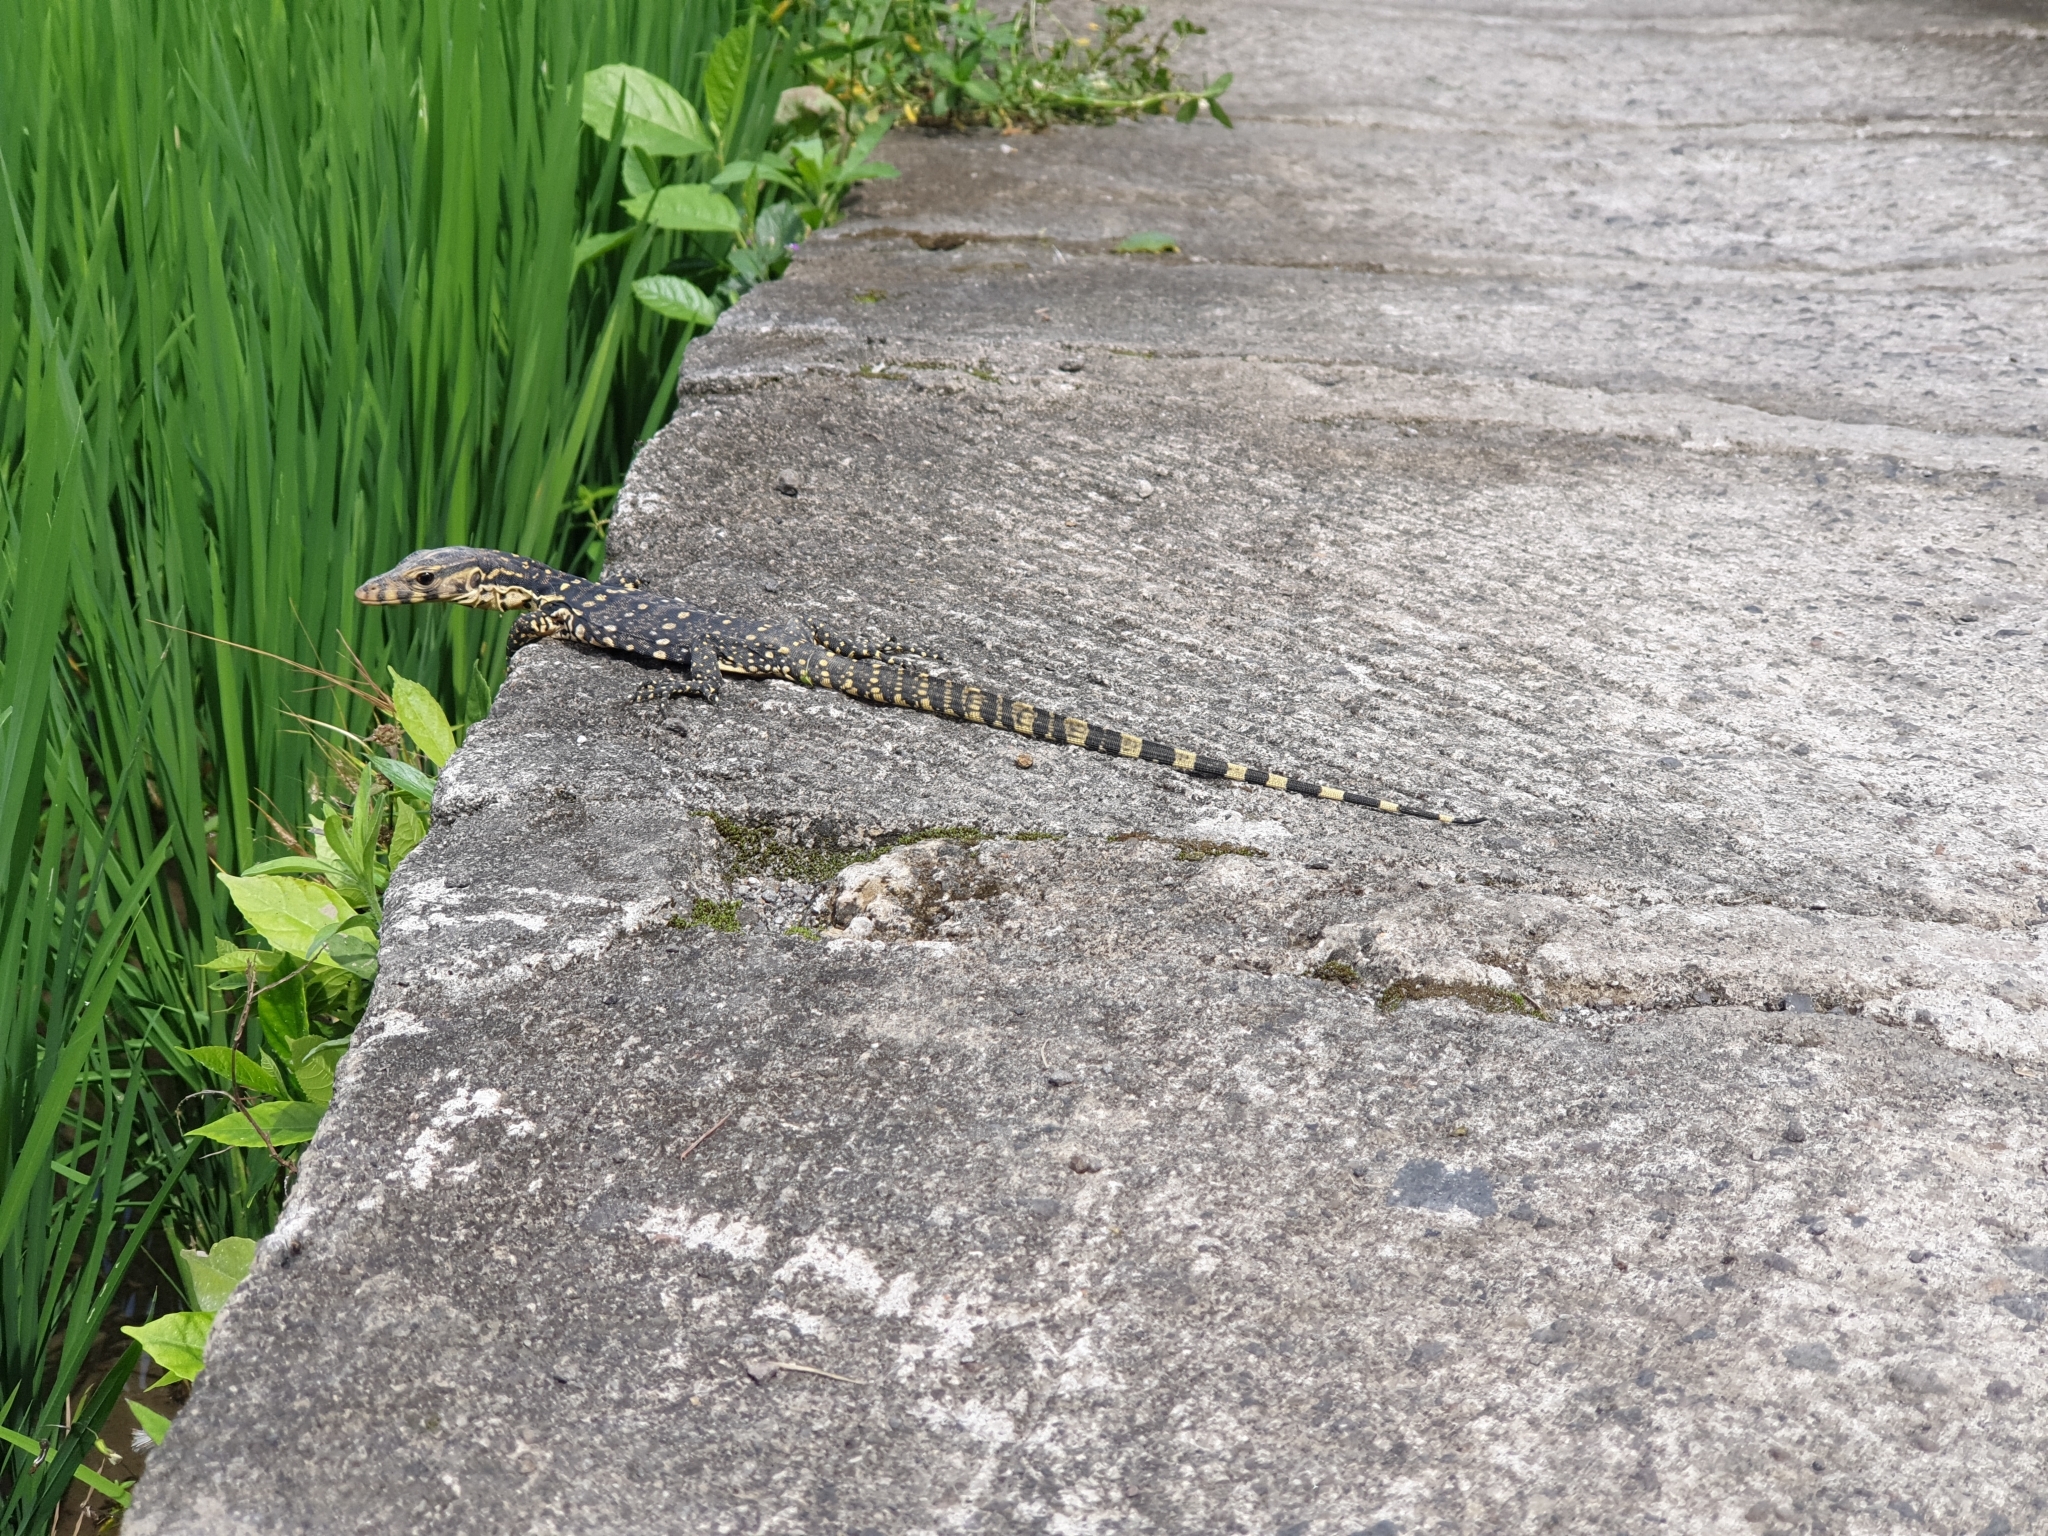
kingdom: Animalia
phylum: Chordata
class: Squamata
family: Varanidae
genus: Varanus
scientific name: Varanus salvator
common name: Common water monitor
